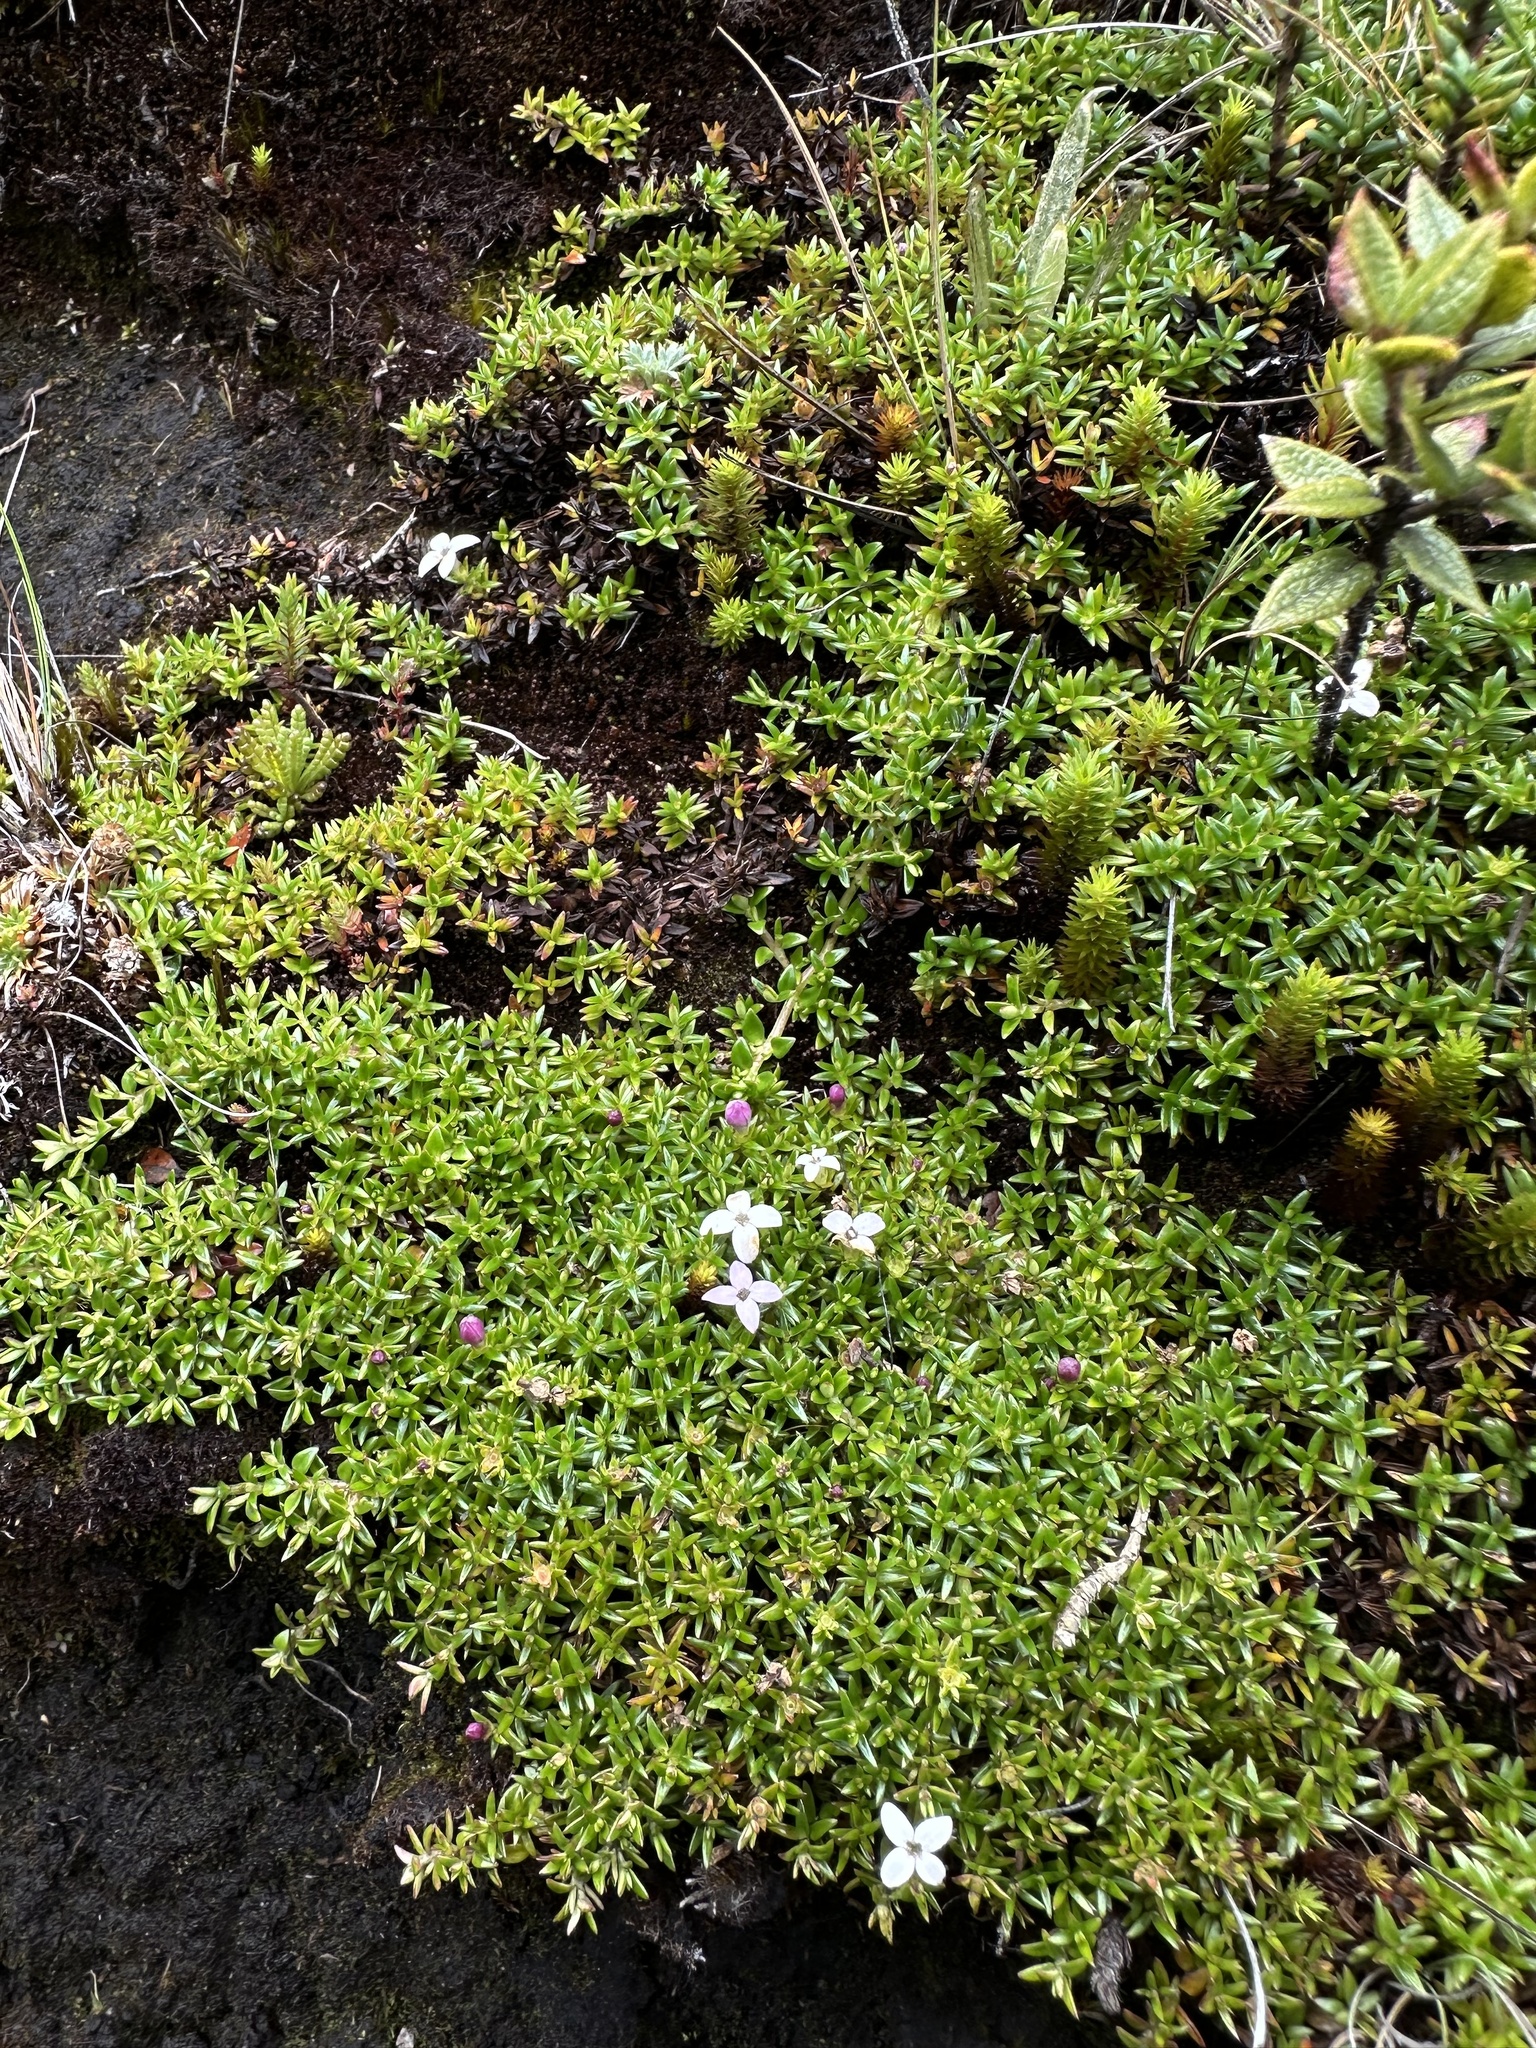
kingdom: Plantae
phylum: Tracheophyta
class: Magnoliopsida
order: Gentianales
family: Rubiaceae
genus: Arcytophyllum
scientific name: Arcytophyllum muticum
